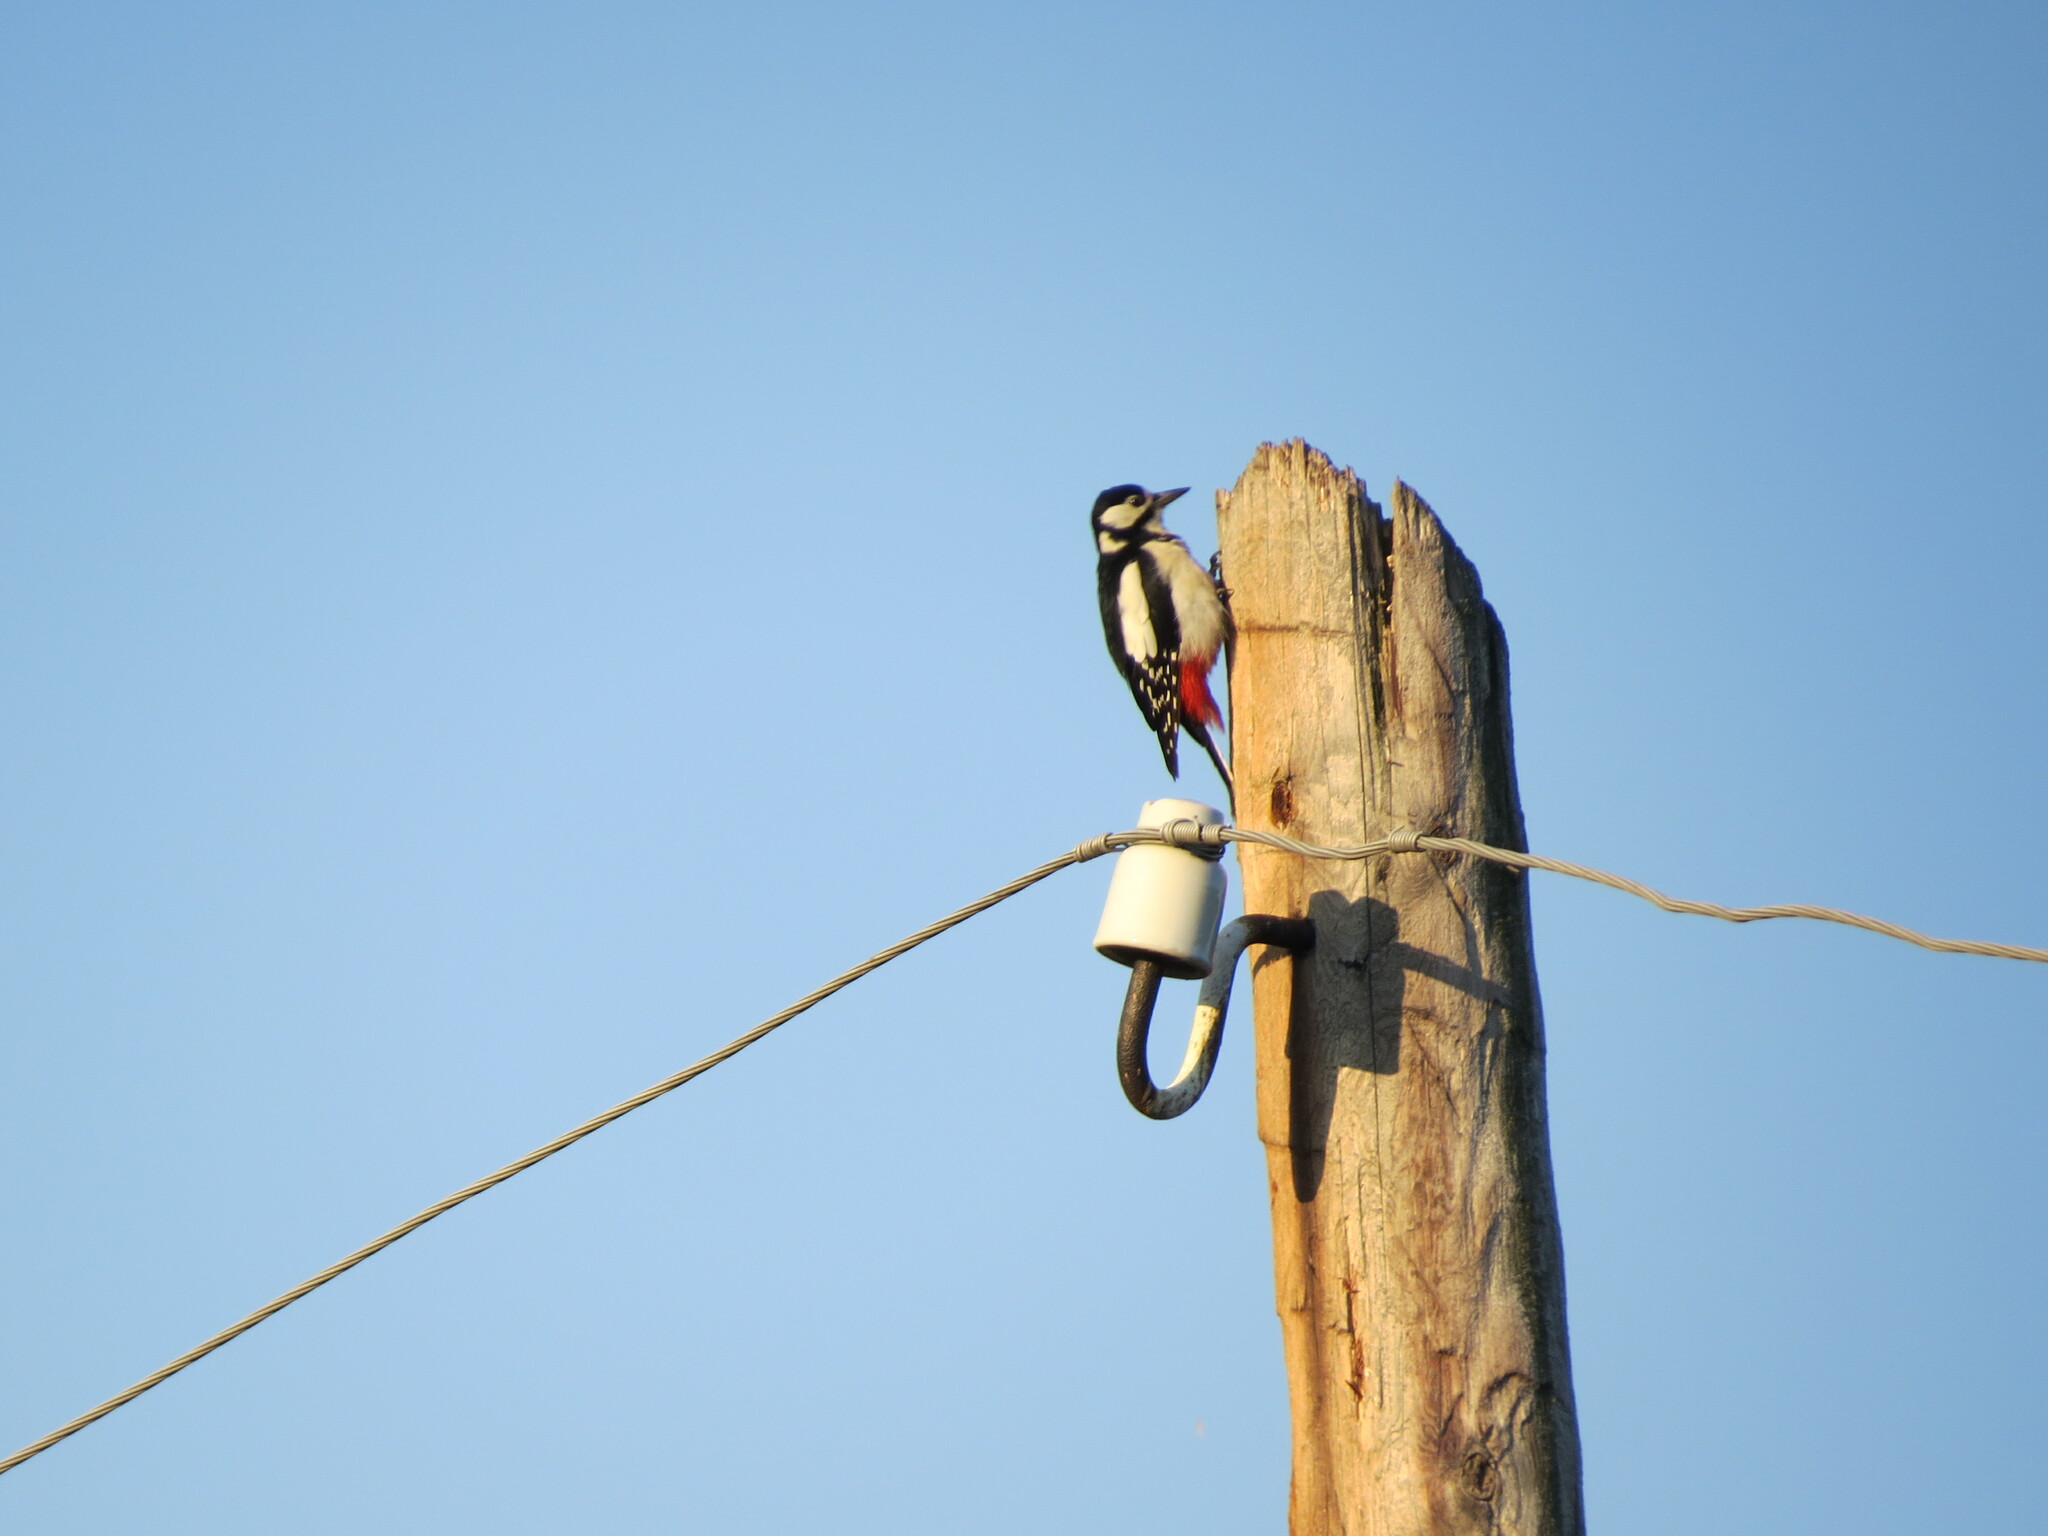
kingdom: Animalia
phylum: Chordata
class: Aves
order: Piciformes
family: Picidae
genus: Dendrocopos
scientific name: Dendrocopos major
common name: Great spotted woodpecker
